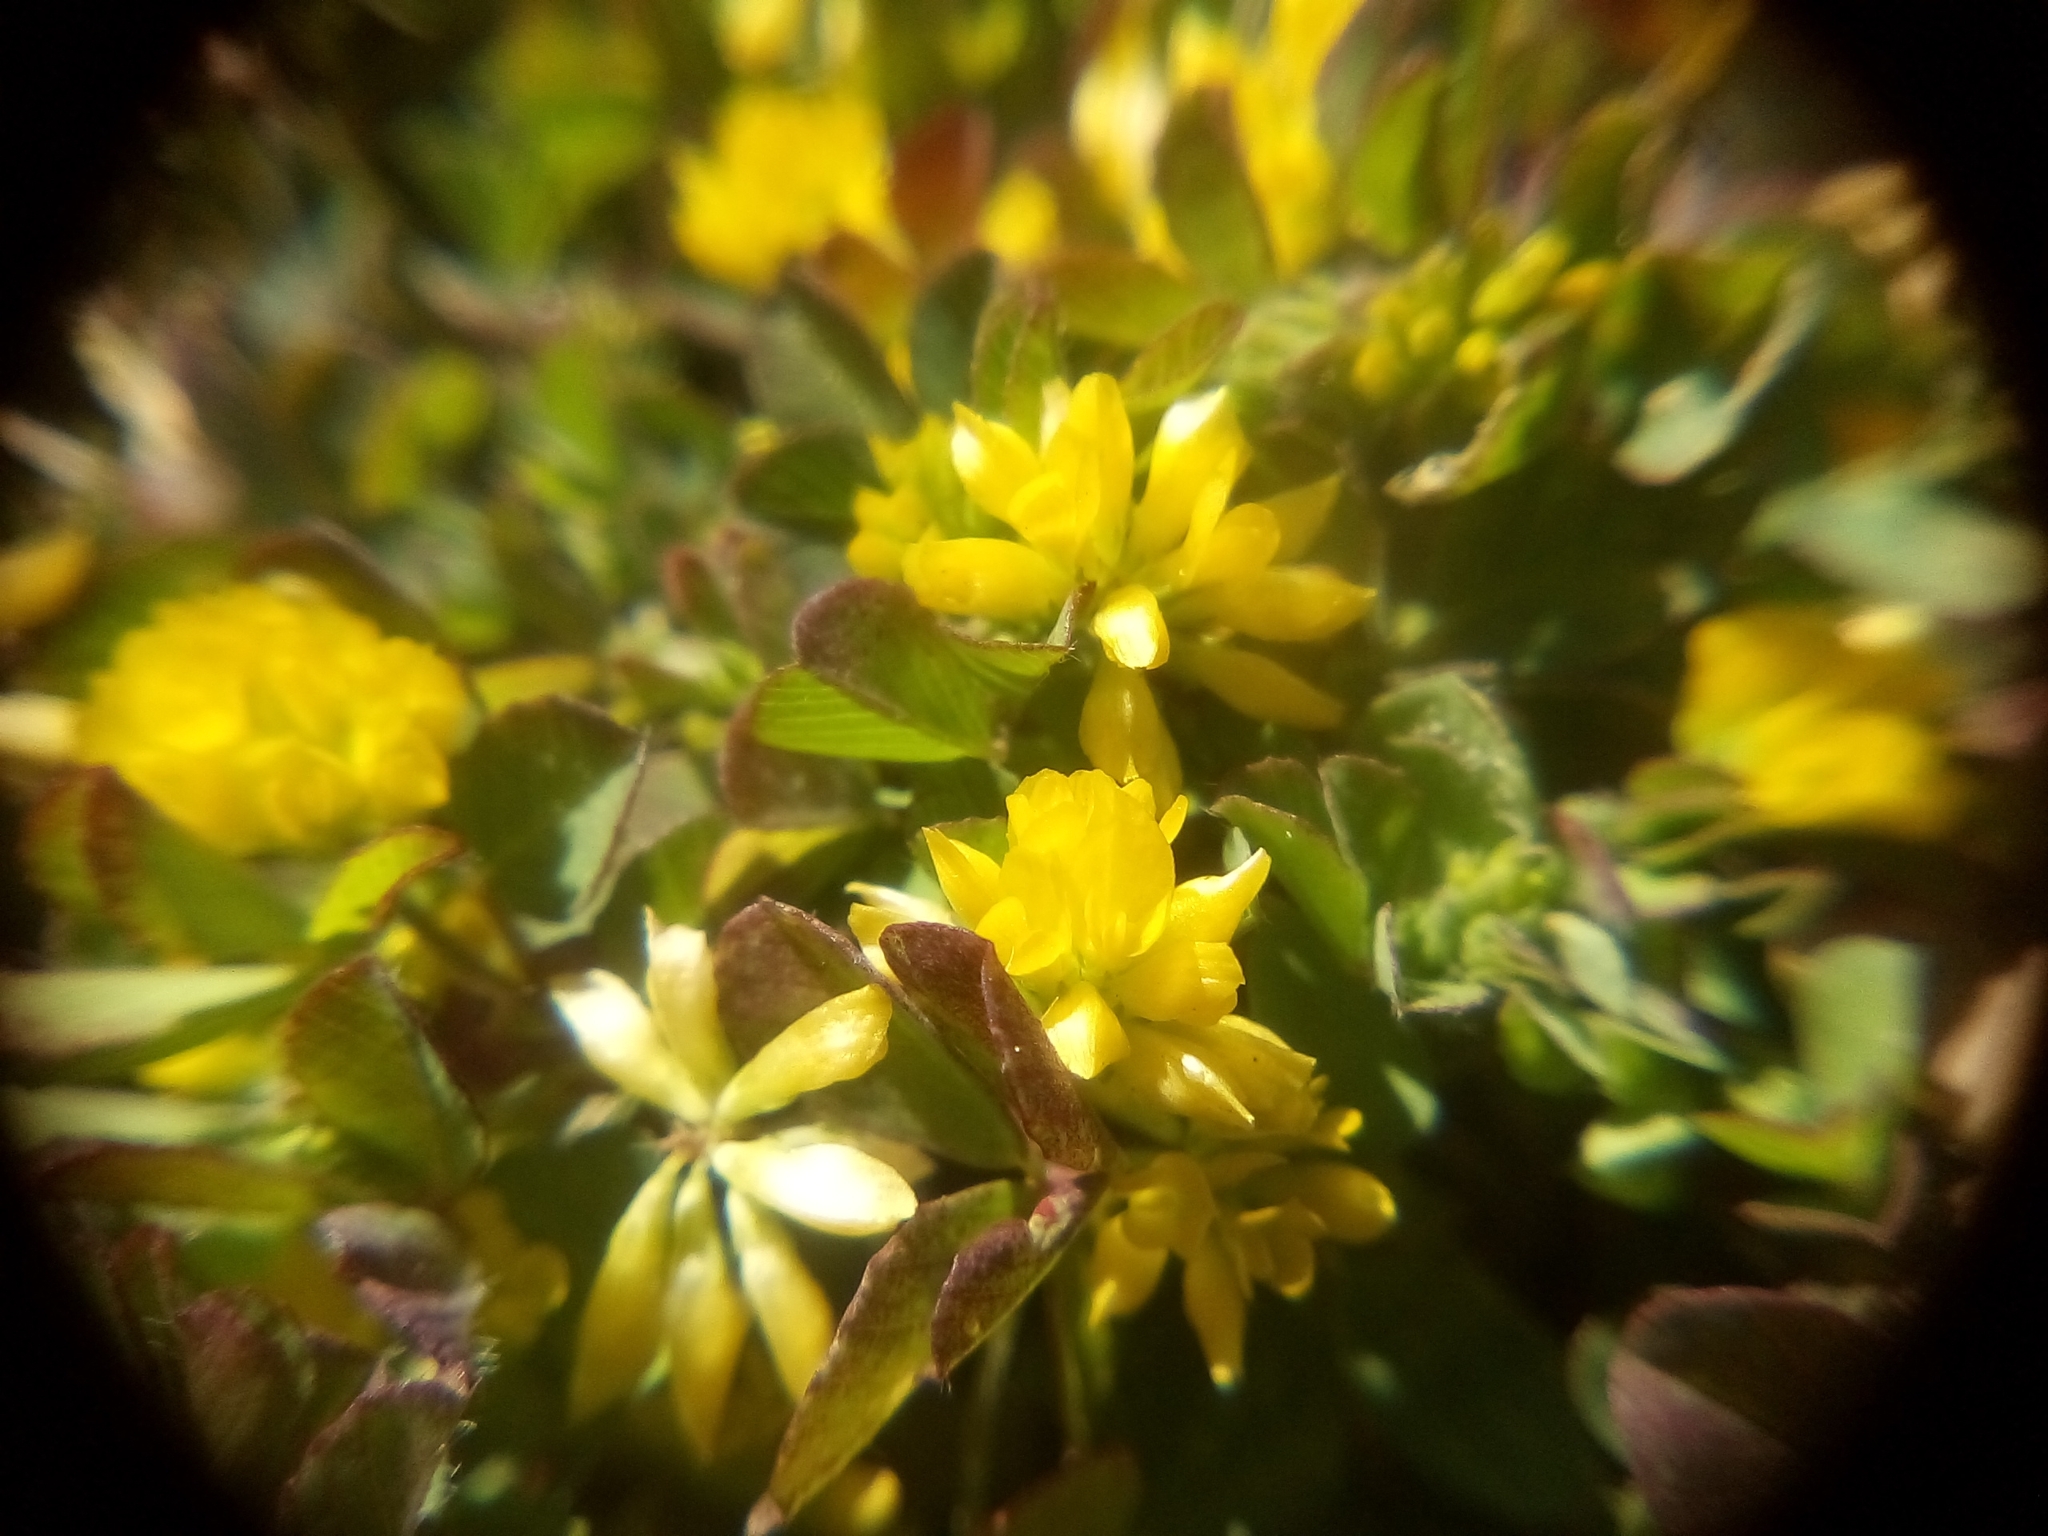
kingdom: Plantae
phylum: Tracheophyta
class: Magnoliopsida
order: Fabales
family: Fabaceae
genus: Trifolium
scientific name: Trifolium dubium
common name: Suckling clover
